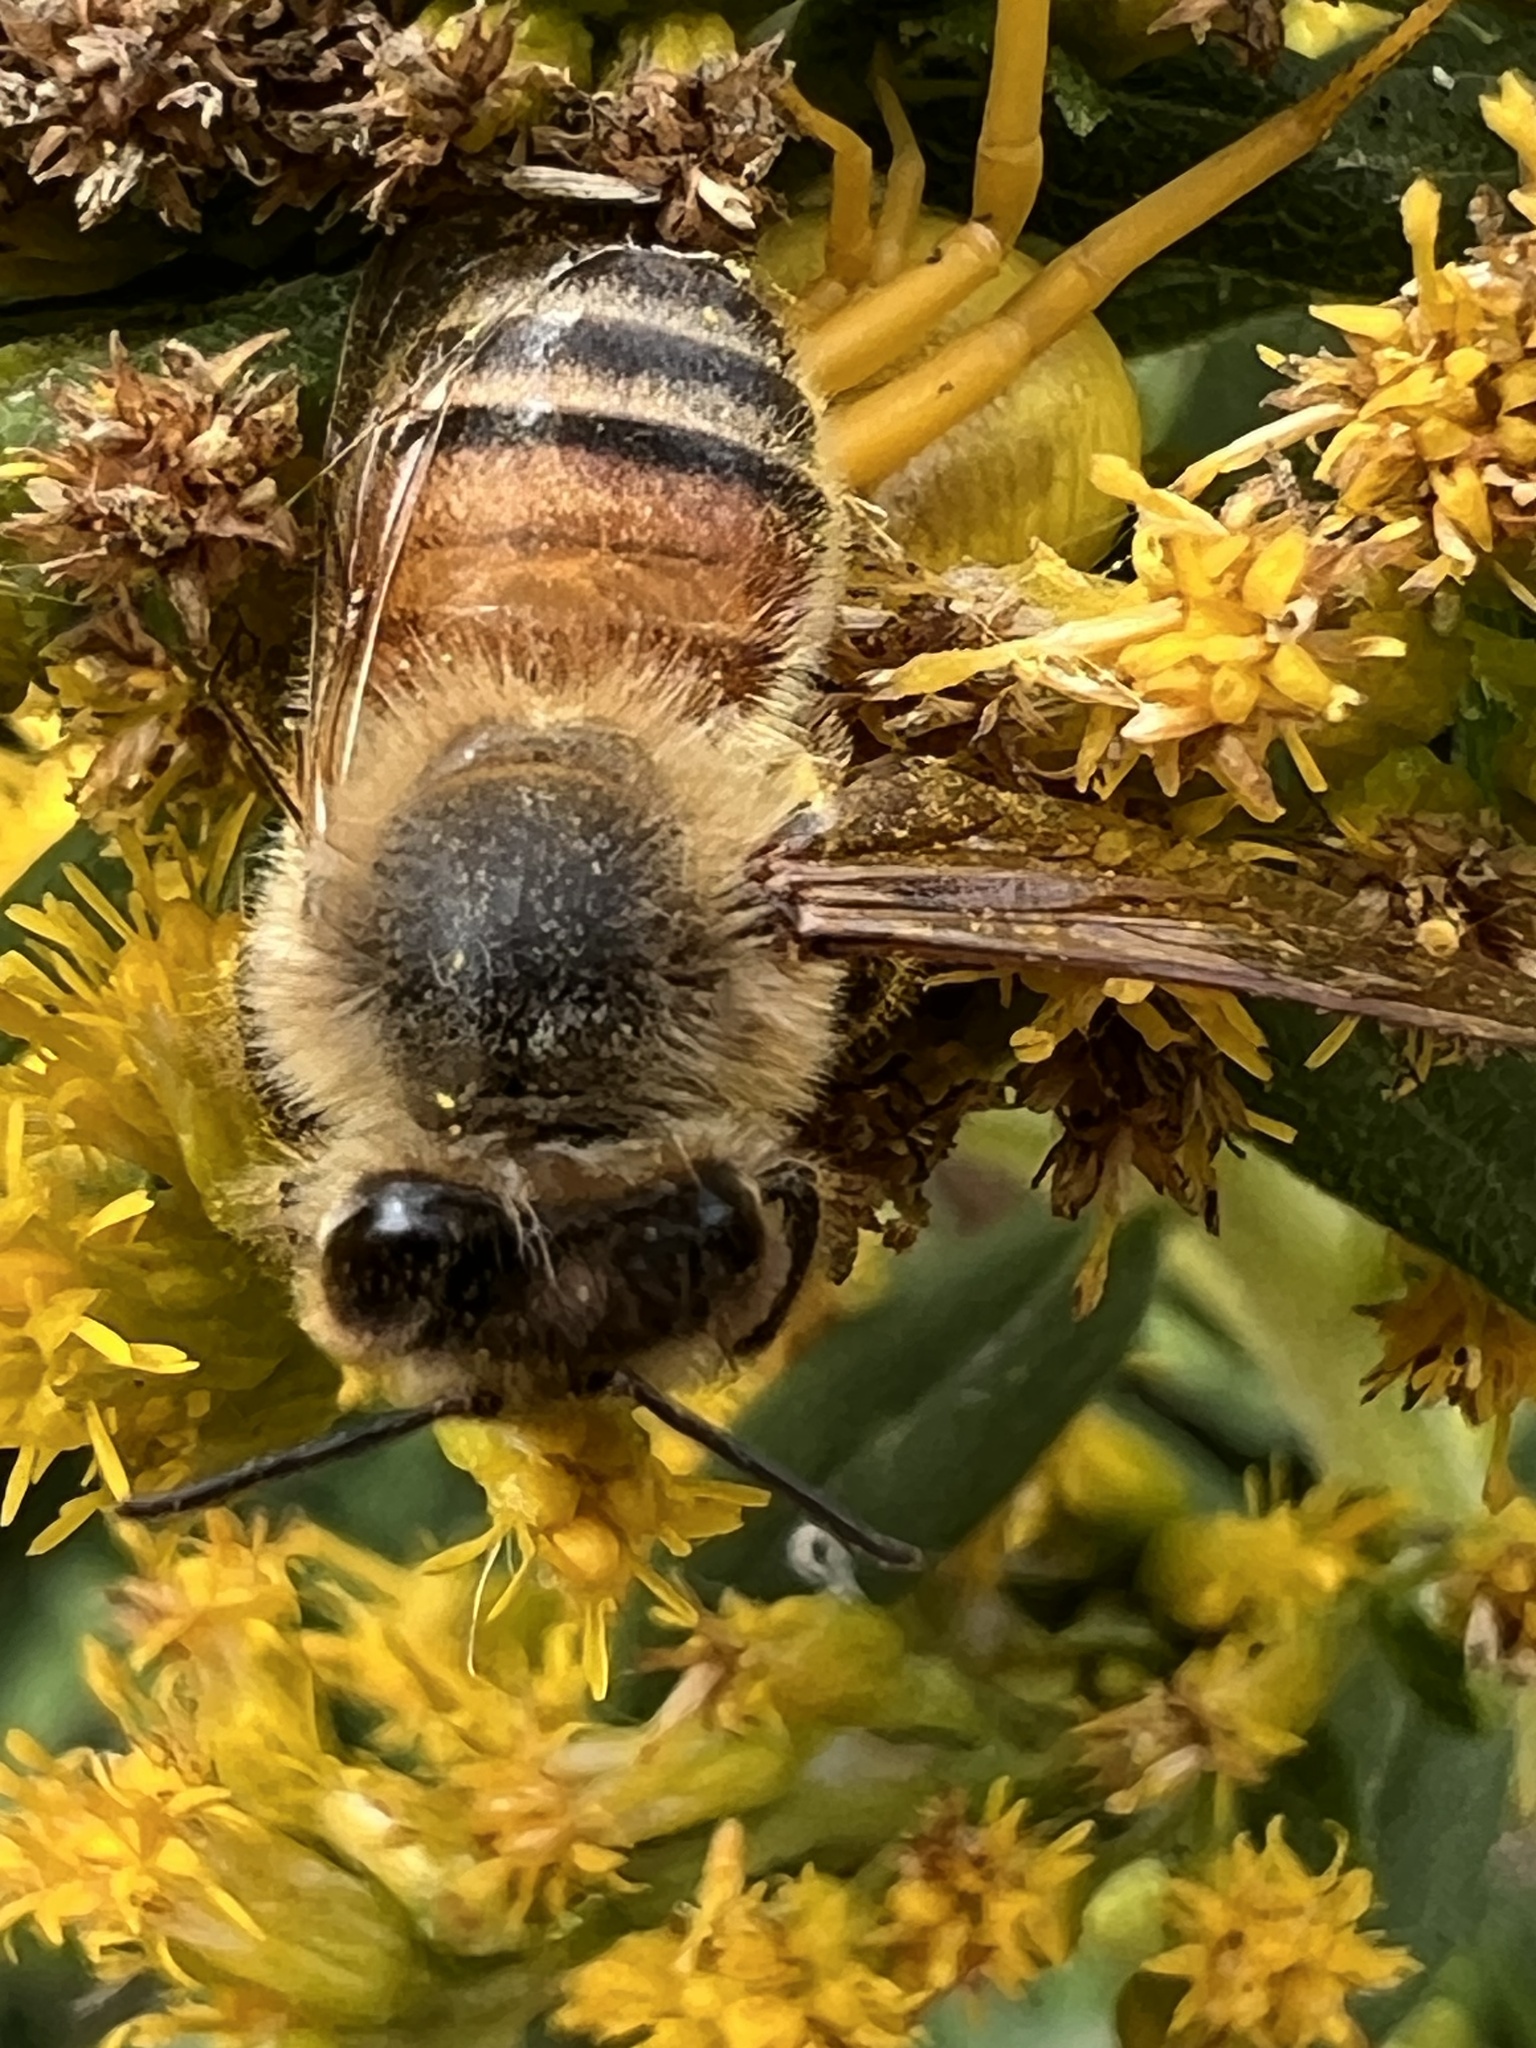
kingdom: Animalia
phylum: Arthropoda
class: Insecta
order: Hymenoptera
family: Apidae
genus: Apis
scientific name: Apis mellifera
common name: Honey bee
